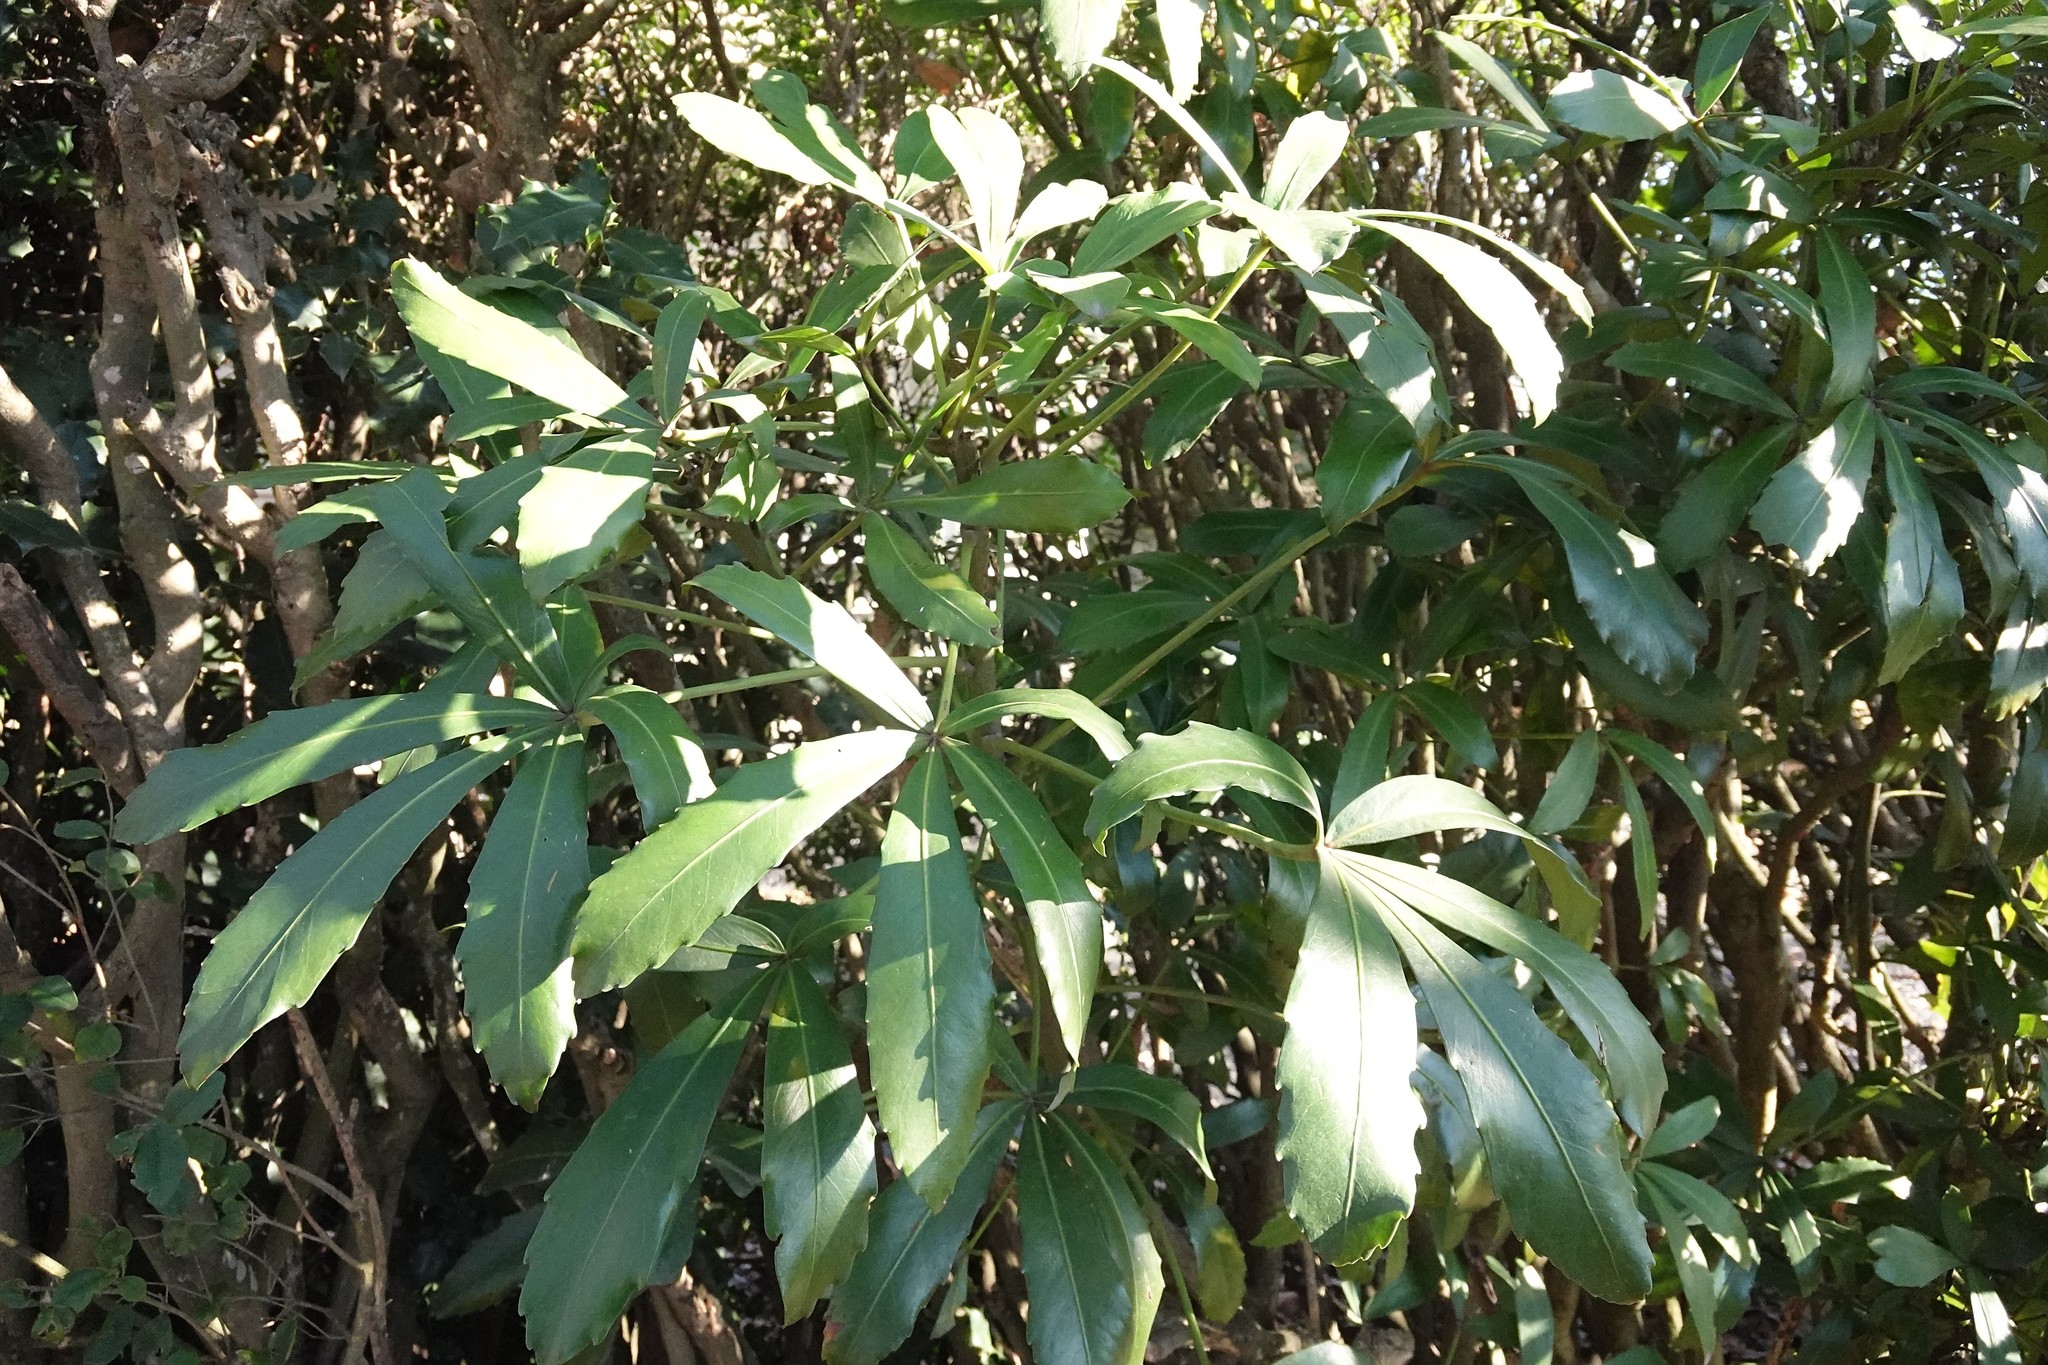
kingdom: Plantae
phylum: Tracheophyta
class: Magnoliopsida
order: Apiales
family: Araliaceae
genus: Pseudopanax
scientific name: Pseudopanax
